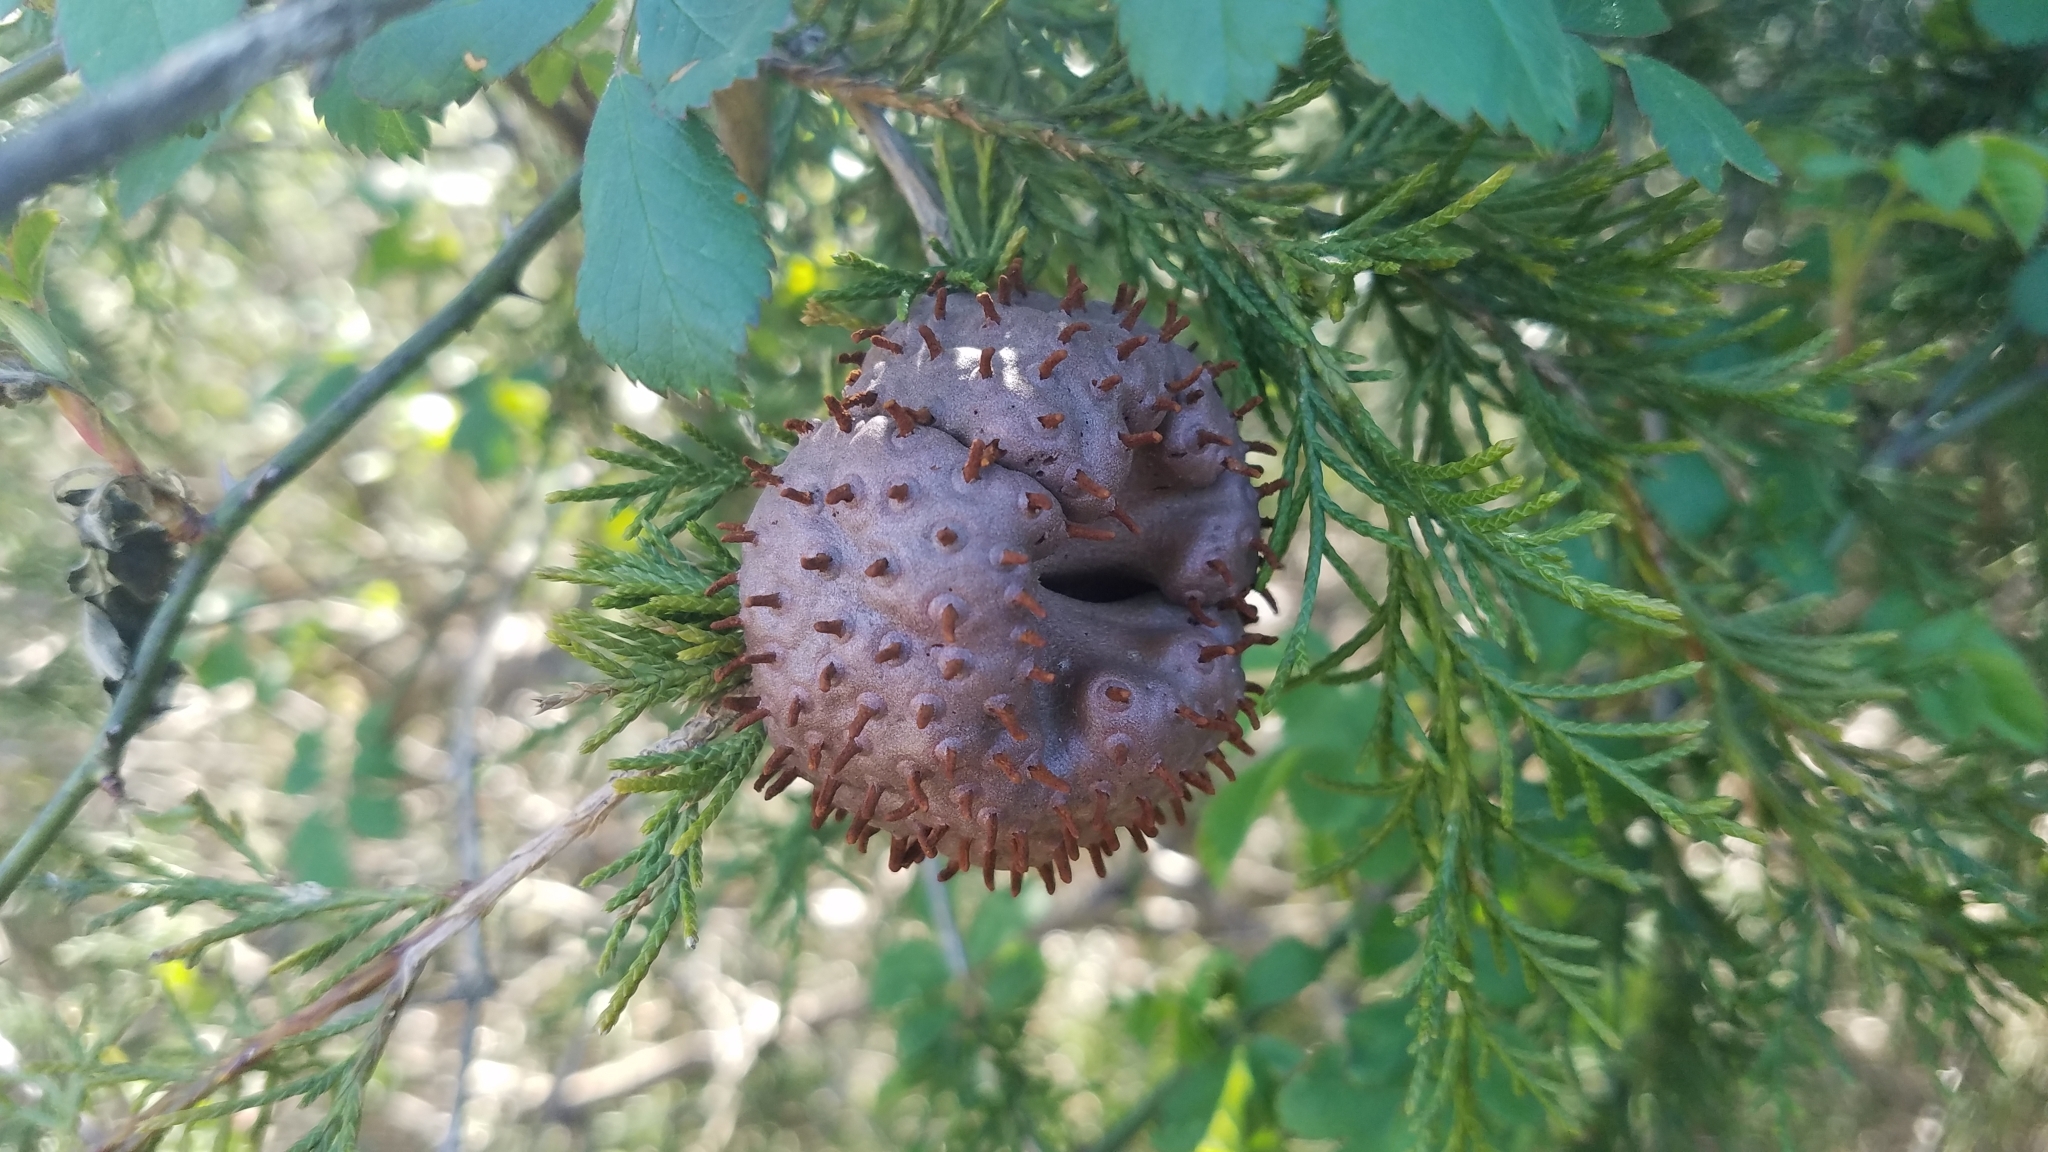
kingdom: Fungi
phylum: Basidiomycota
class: Pucciniomycetes
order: Pucciniales
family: Gymnosporangiaceae
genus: Gymnosporangium
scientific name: Gymnosporangium juniperi-virginianae
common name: Juniper-apple rust
